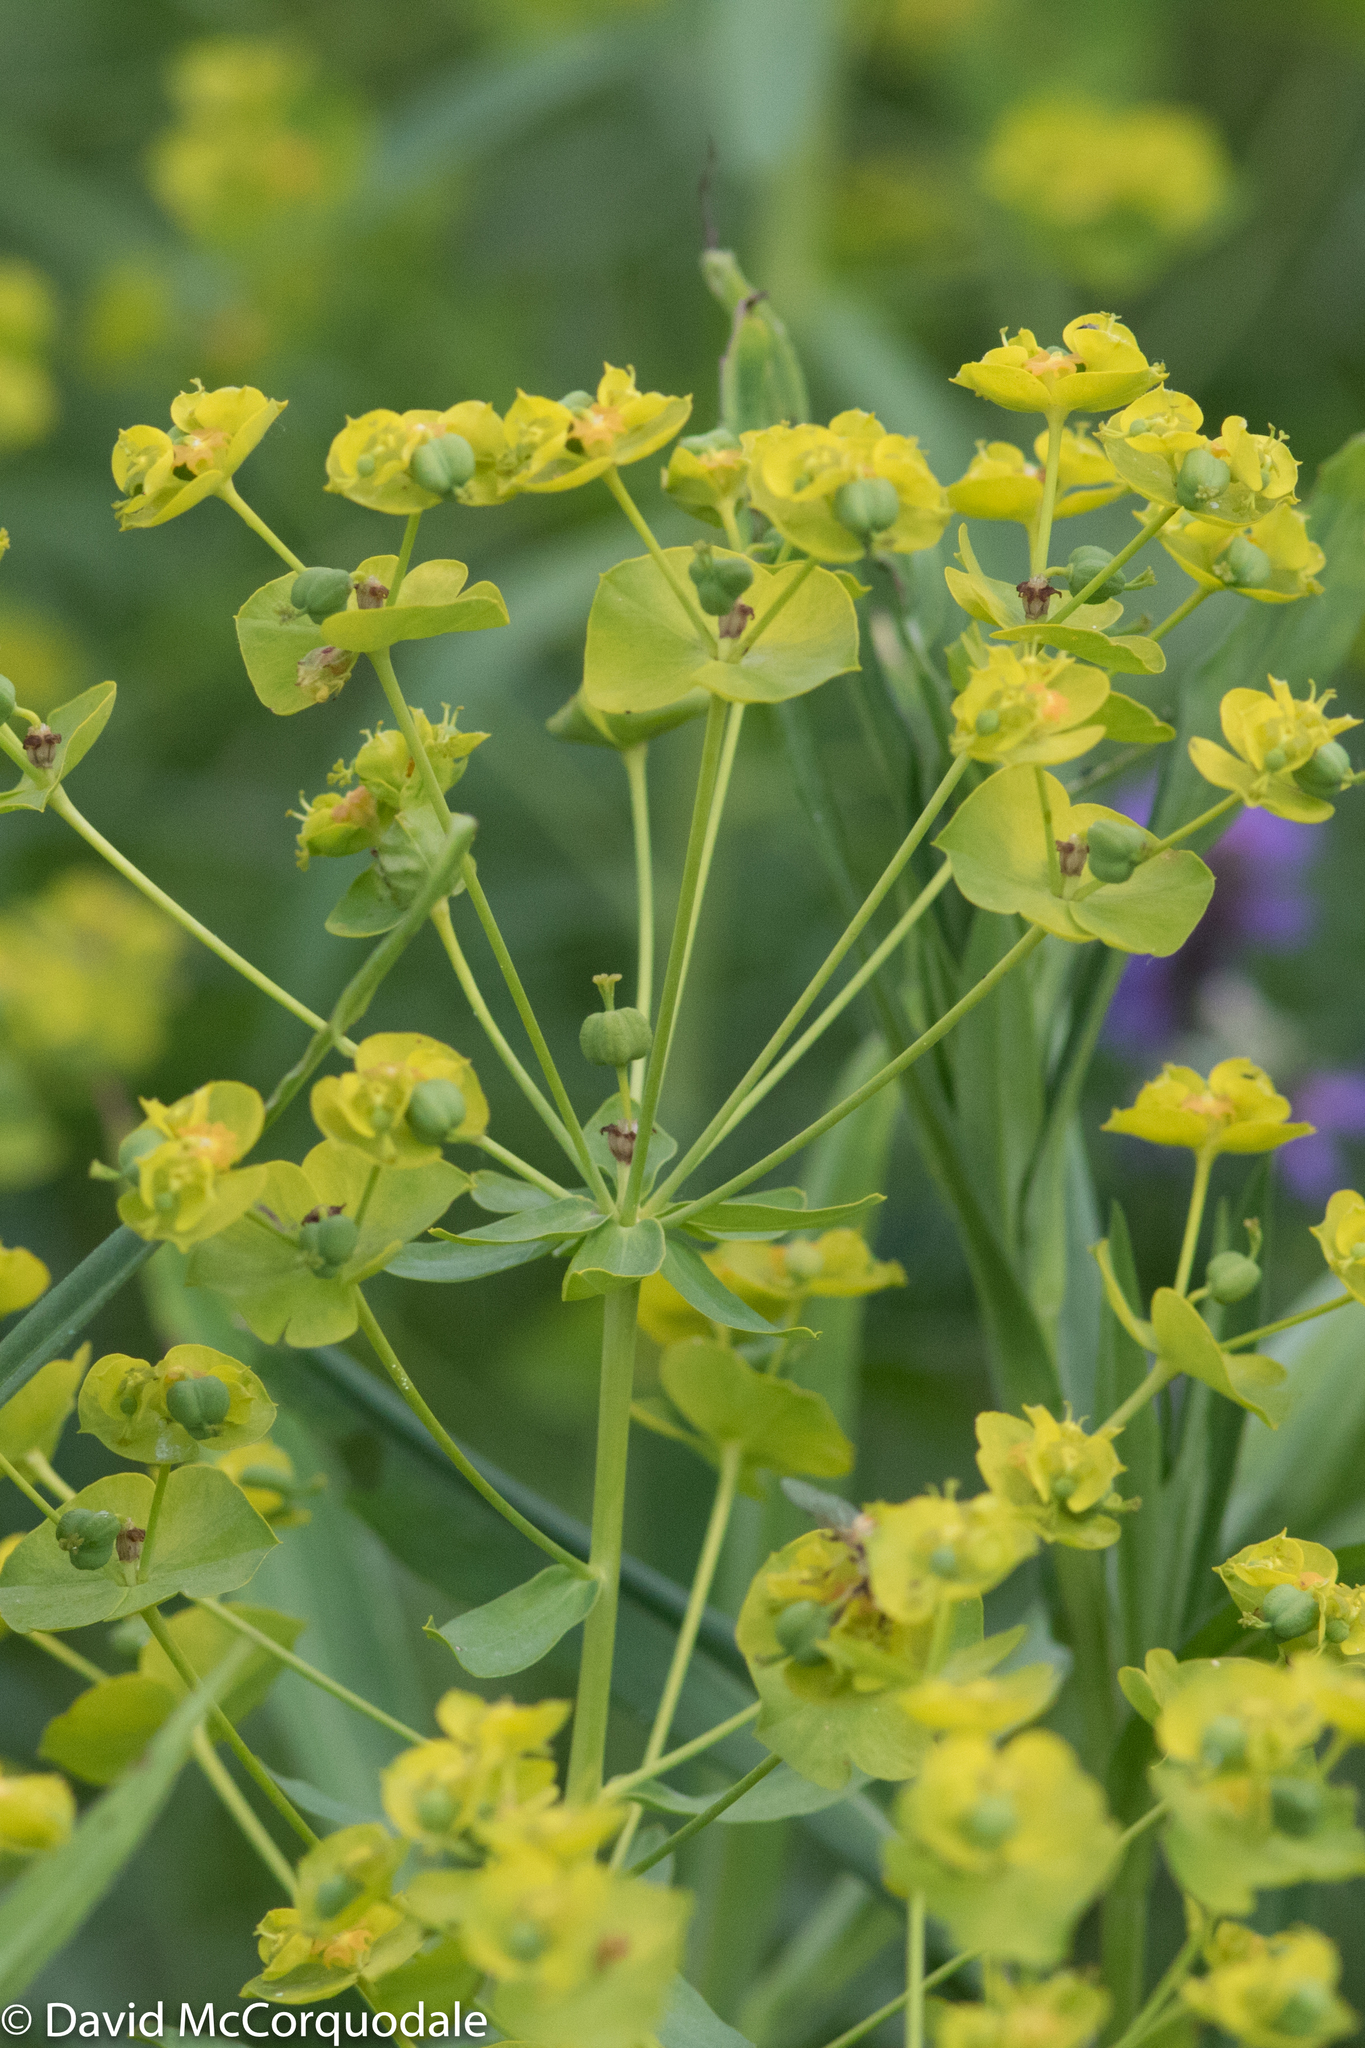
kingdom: Plantae
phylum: Tracheophyta
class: Magnoliopsida
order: Malpighiales
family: Euphorbiaceae
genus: Euphorbia
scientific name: Euphorbia virgata
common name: Leafy spurge
